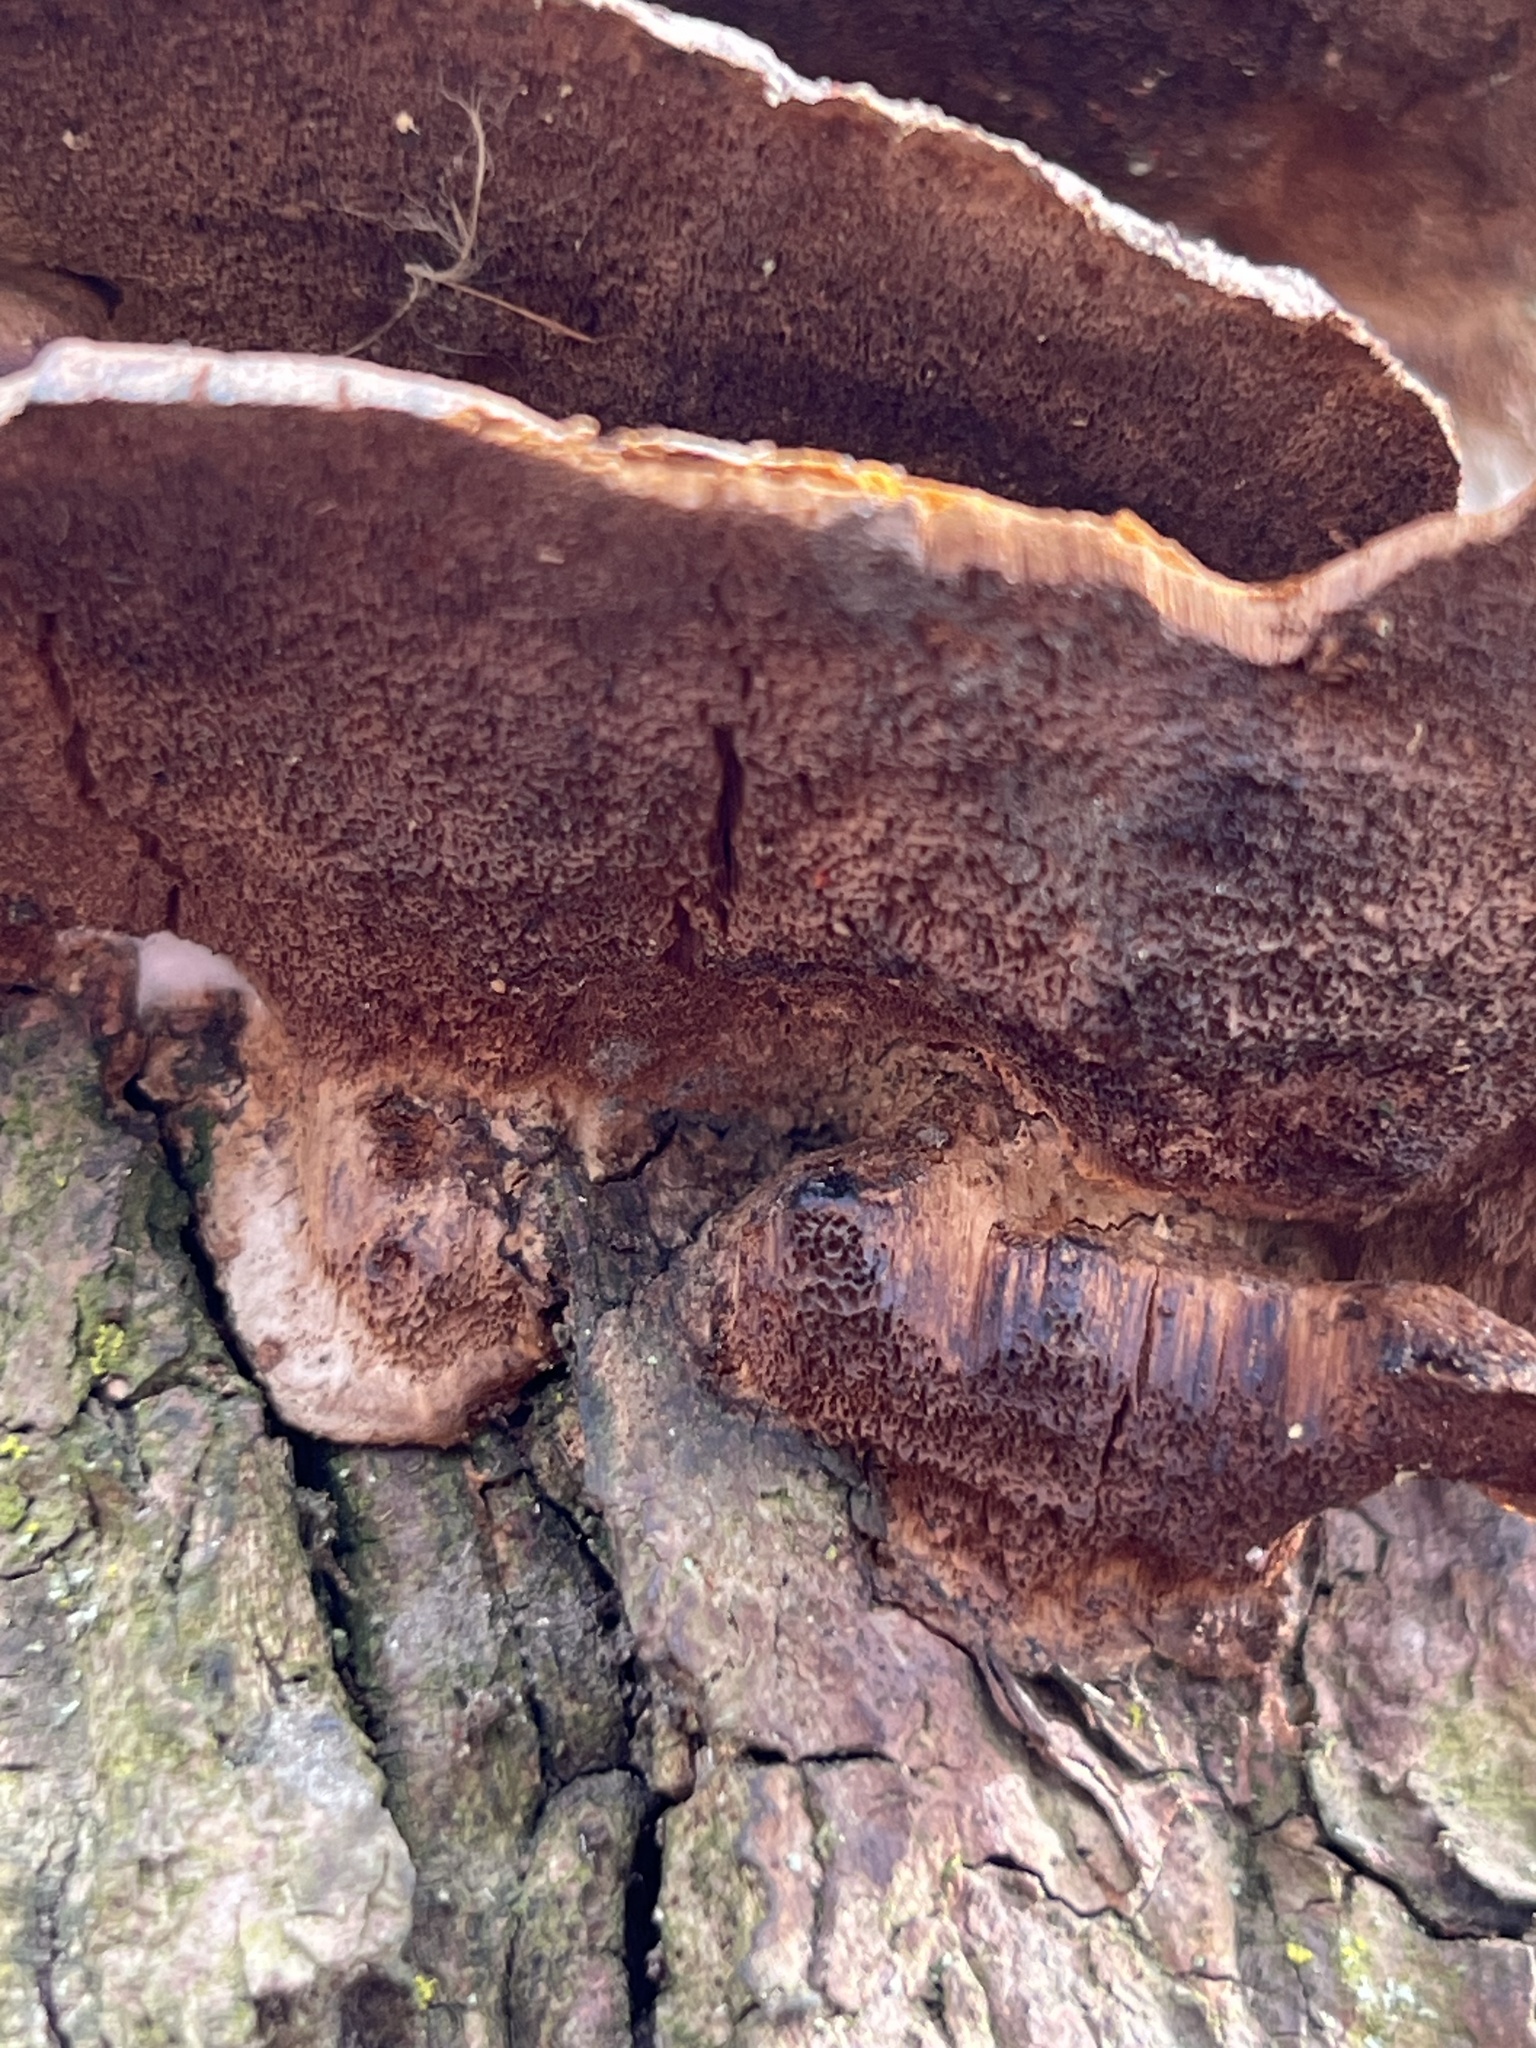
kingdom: Fungi
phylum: Basidiomycota
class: Agaricomycetes
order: Hymenochaetales
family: Hymenochaetaceae
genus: Phellinus
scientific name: Phellinus gilvus
